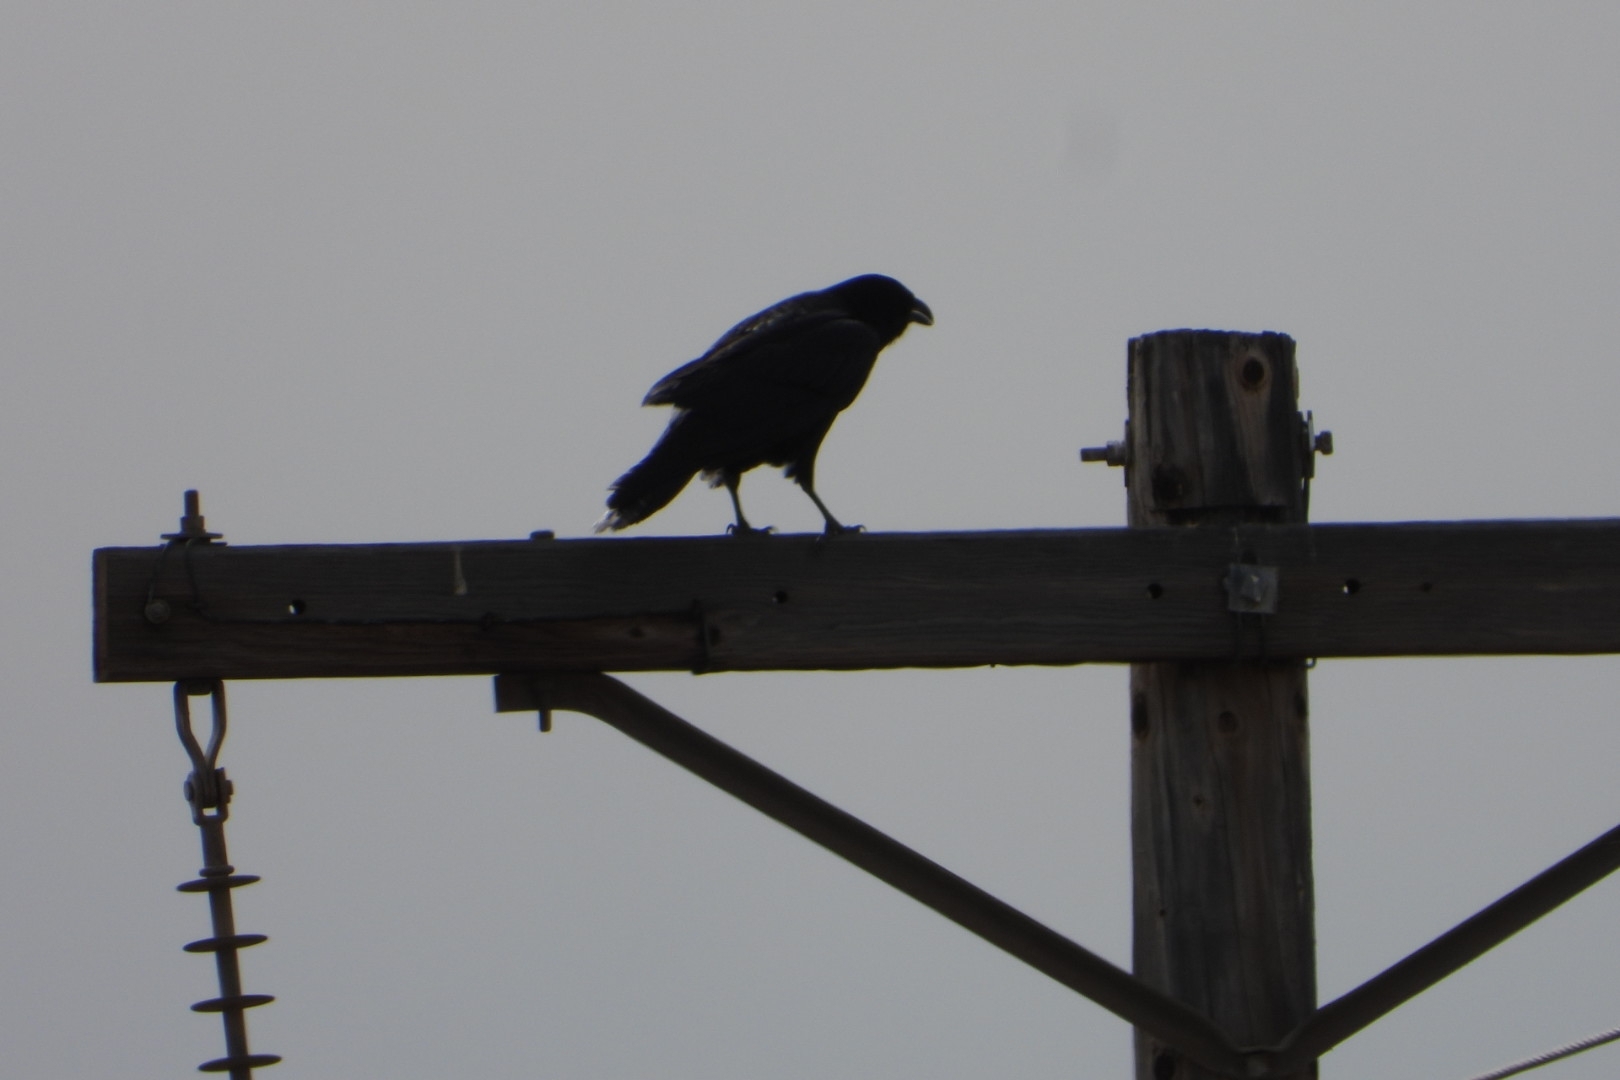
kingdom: Animalia
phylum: Chordata
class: Aves
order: Passeriformes
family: Corvidae
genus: Corvus
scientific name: Corvus corax
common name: Common raven
